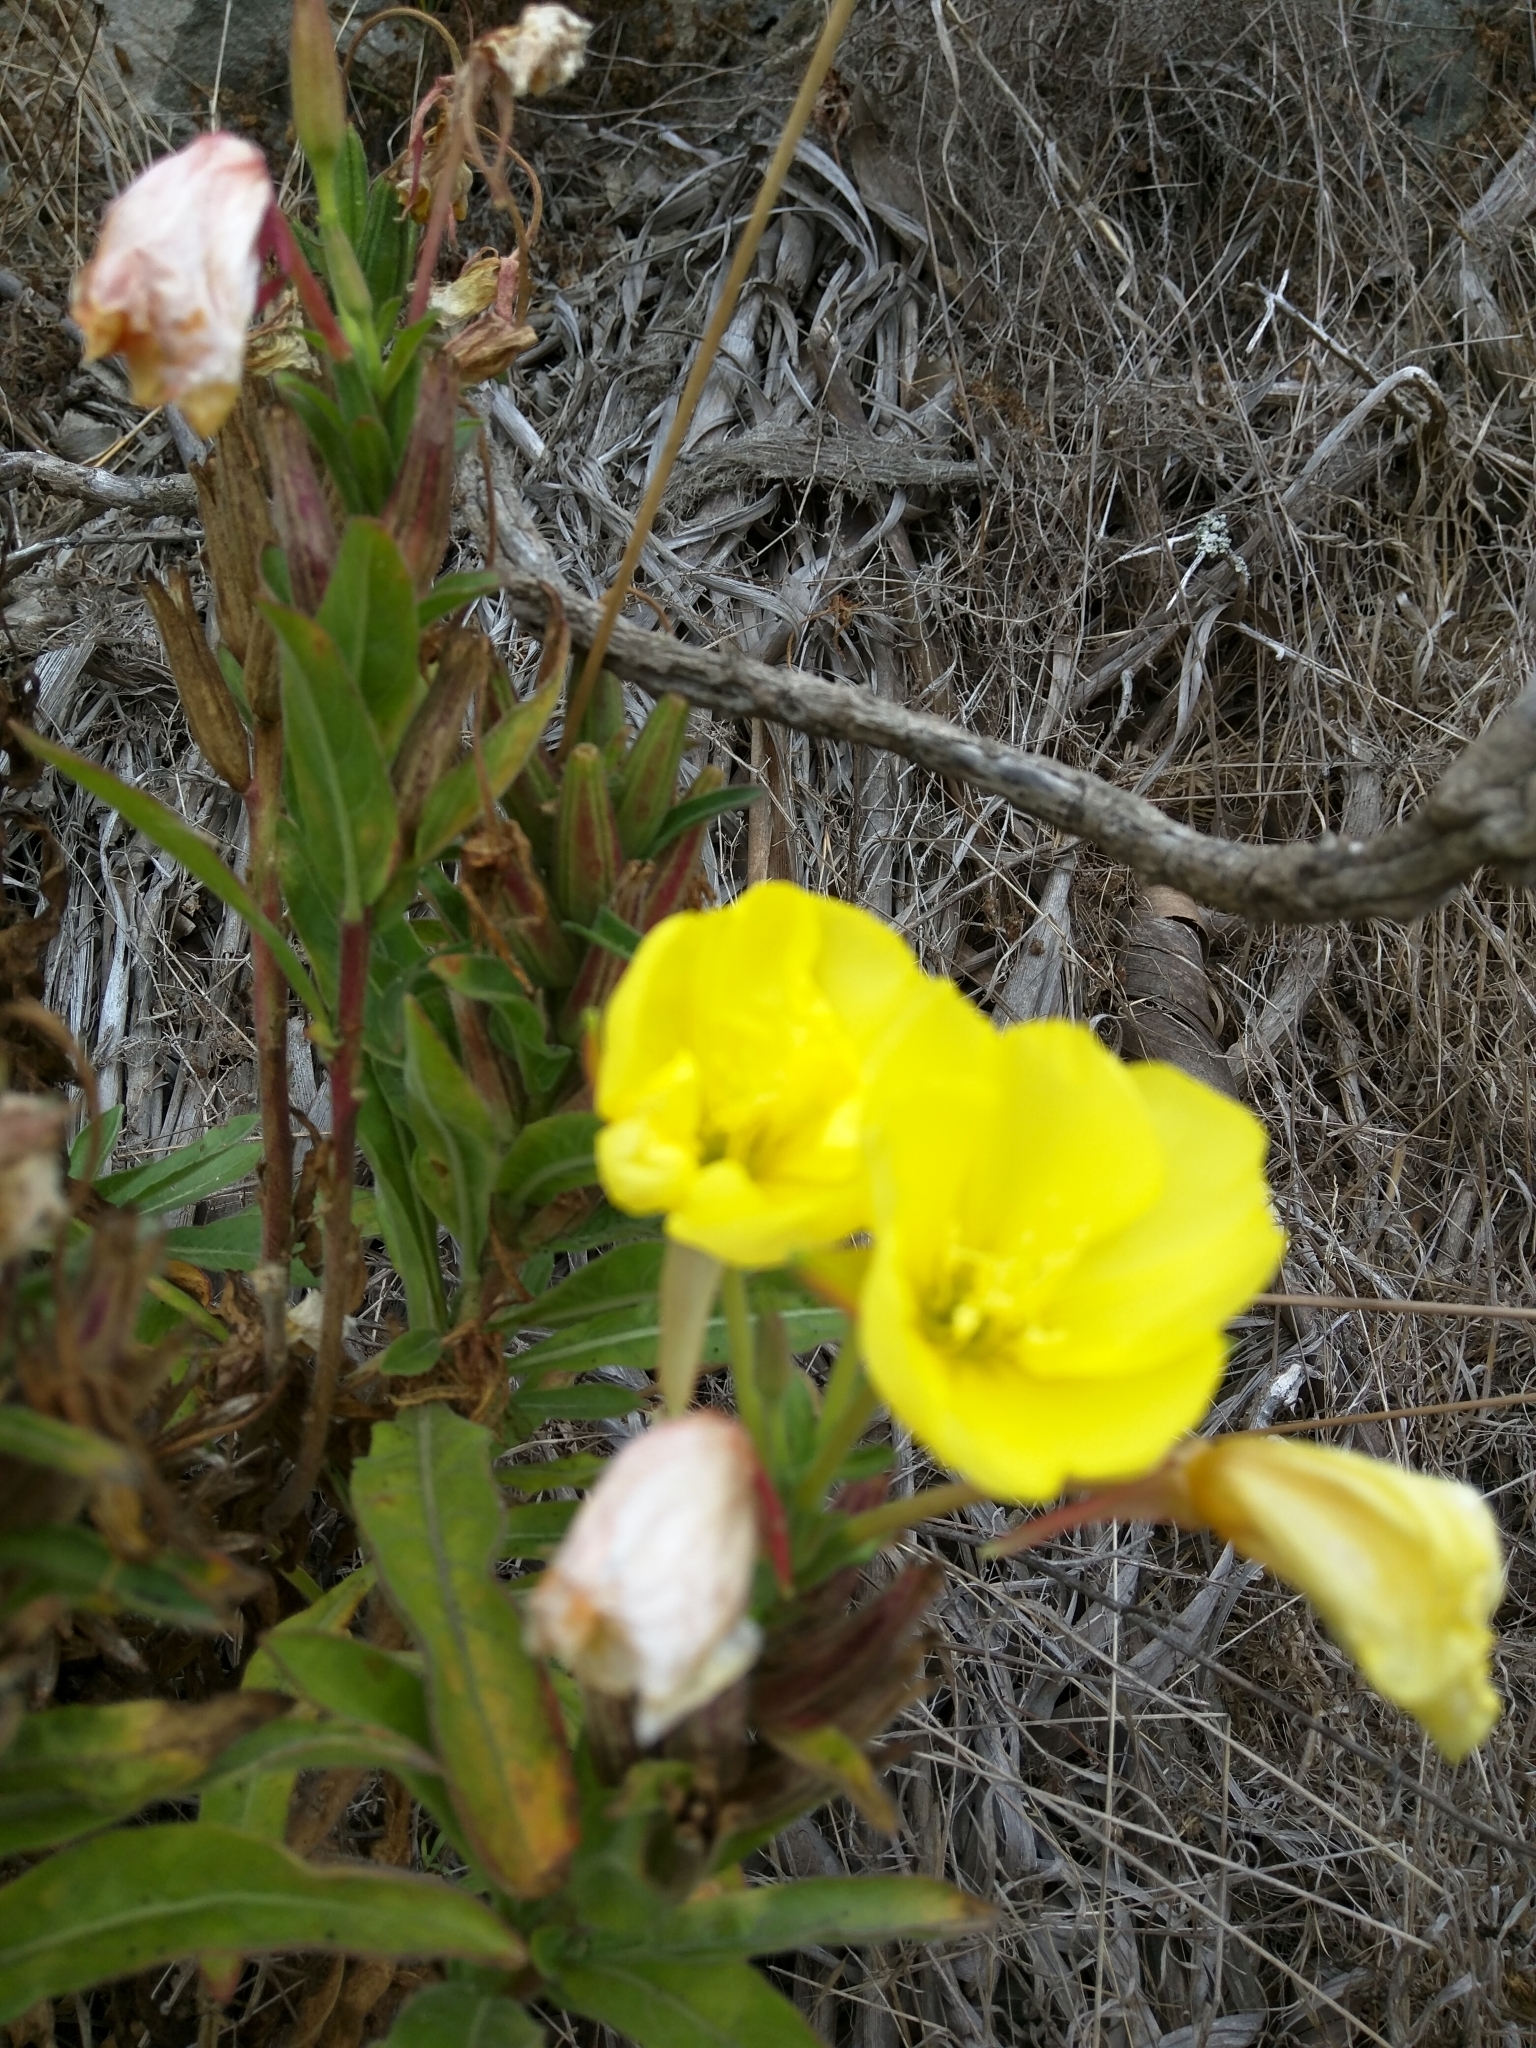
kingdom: Plantae
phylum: Tracheophyta
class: Magnoliopsida
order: Myrtales
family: Onagraceae
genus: Oenothera
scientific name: Oenothera elata
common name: Hooker's evening-primrose
